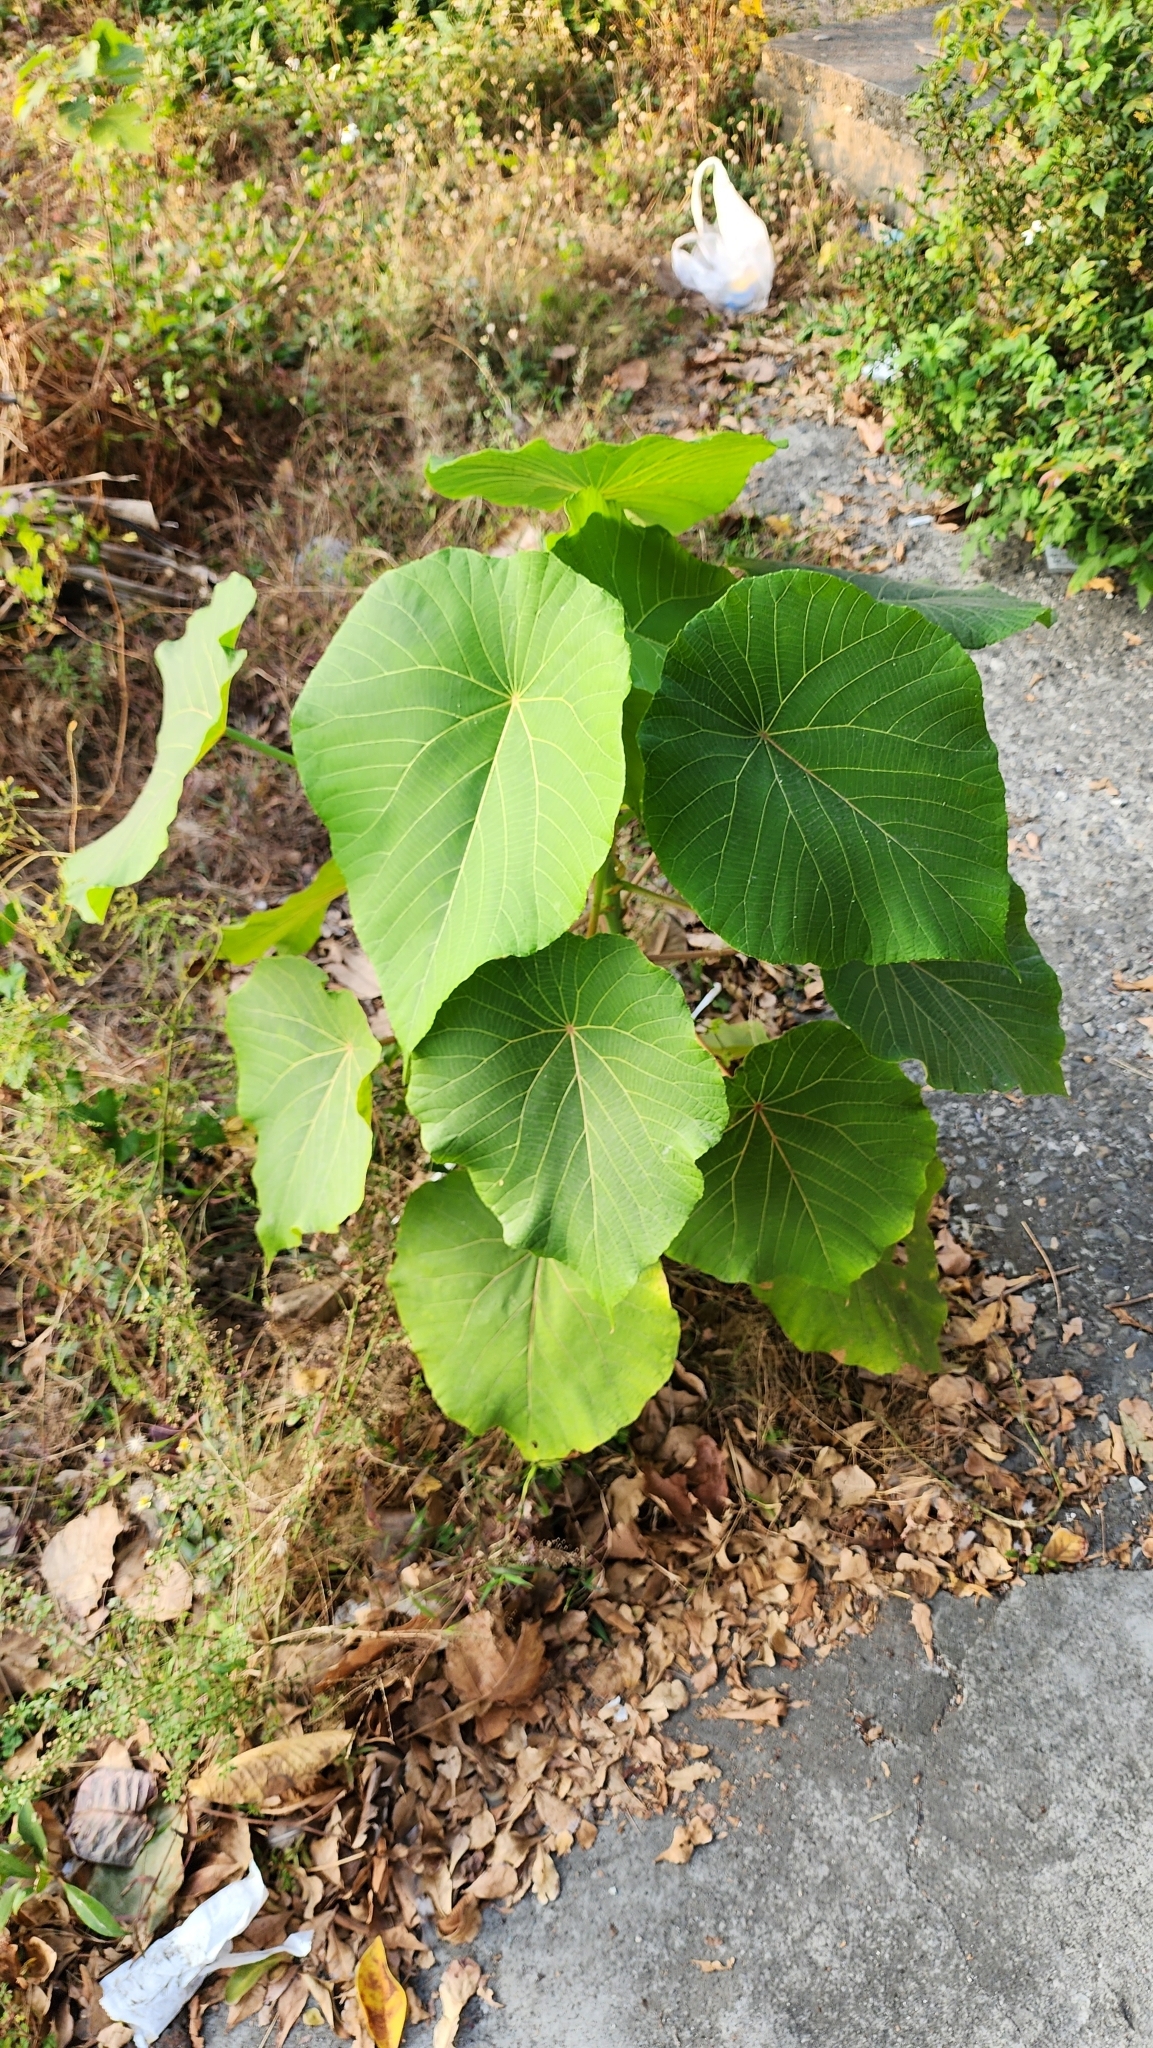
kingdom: Plantae
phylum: Tracheophyta
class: Magnoliopsida
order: Malpighiales
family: Euphorbiaceae
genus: Macaranga
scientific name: Macaranga tanarius
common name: Parasol leaf tree
